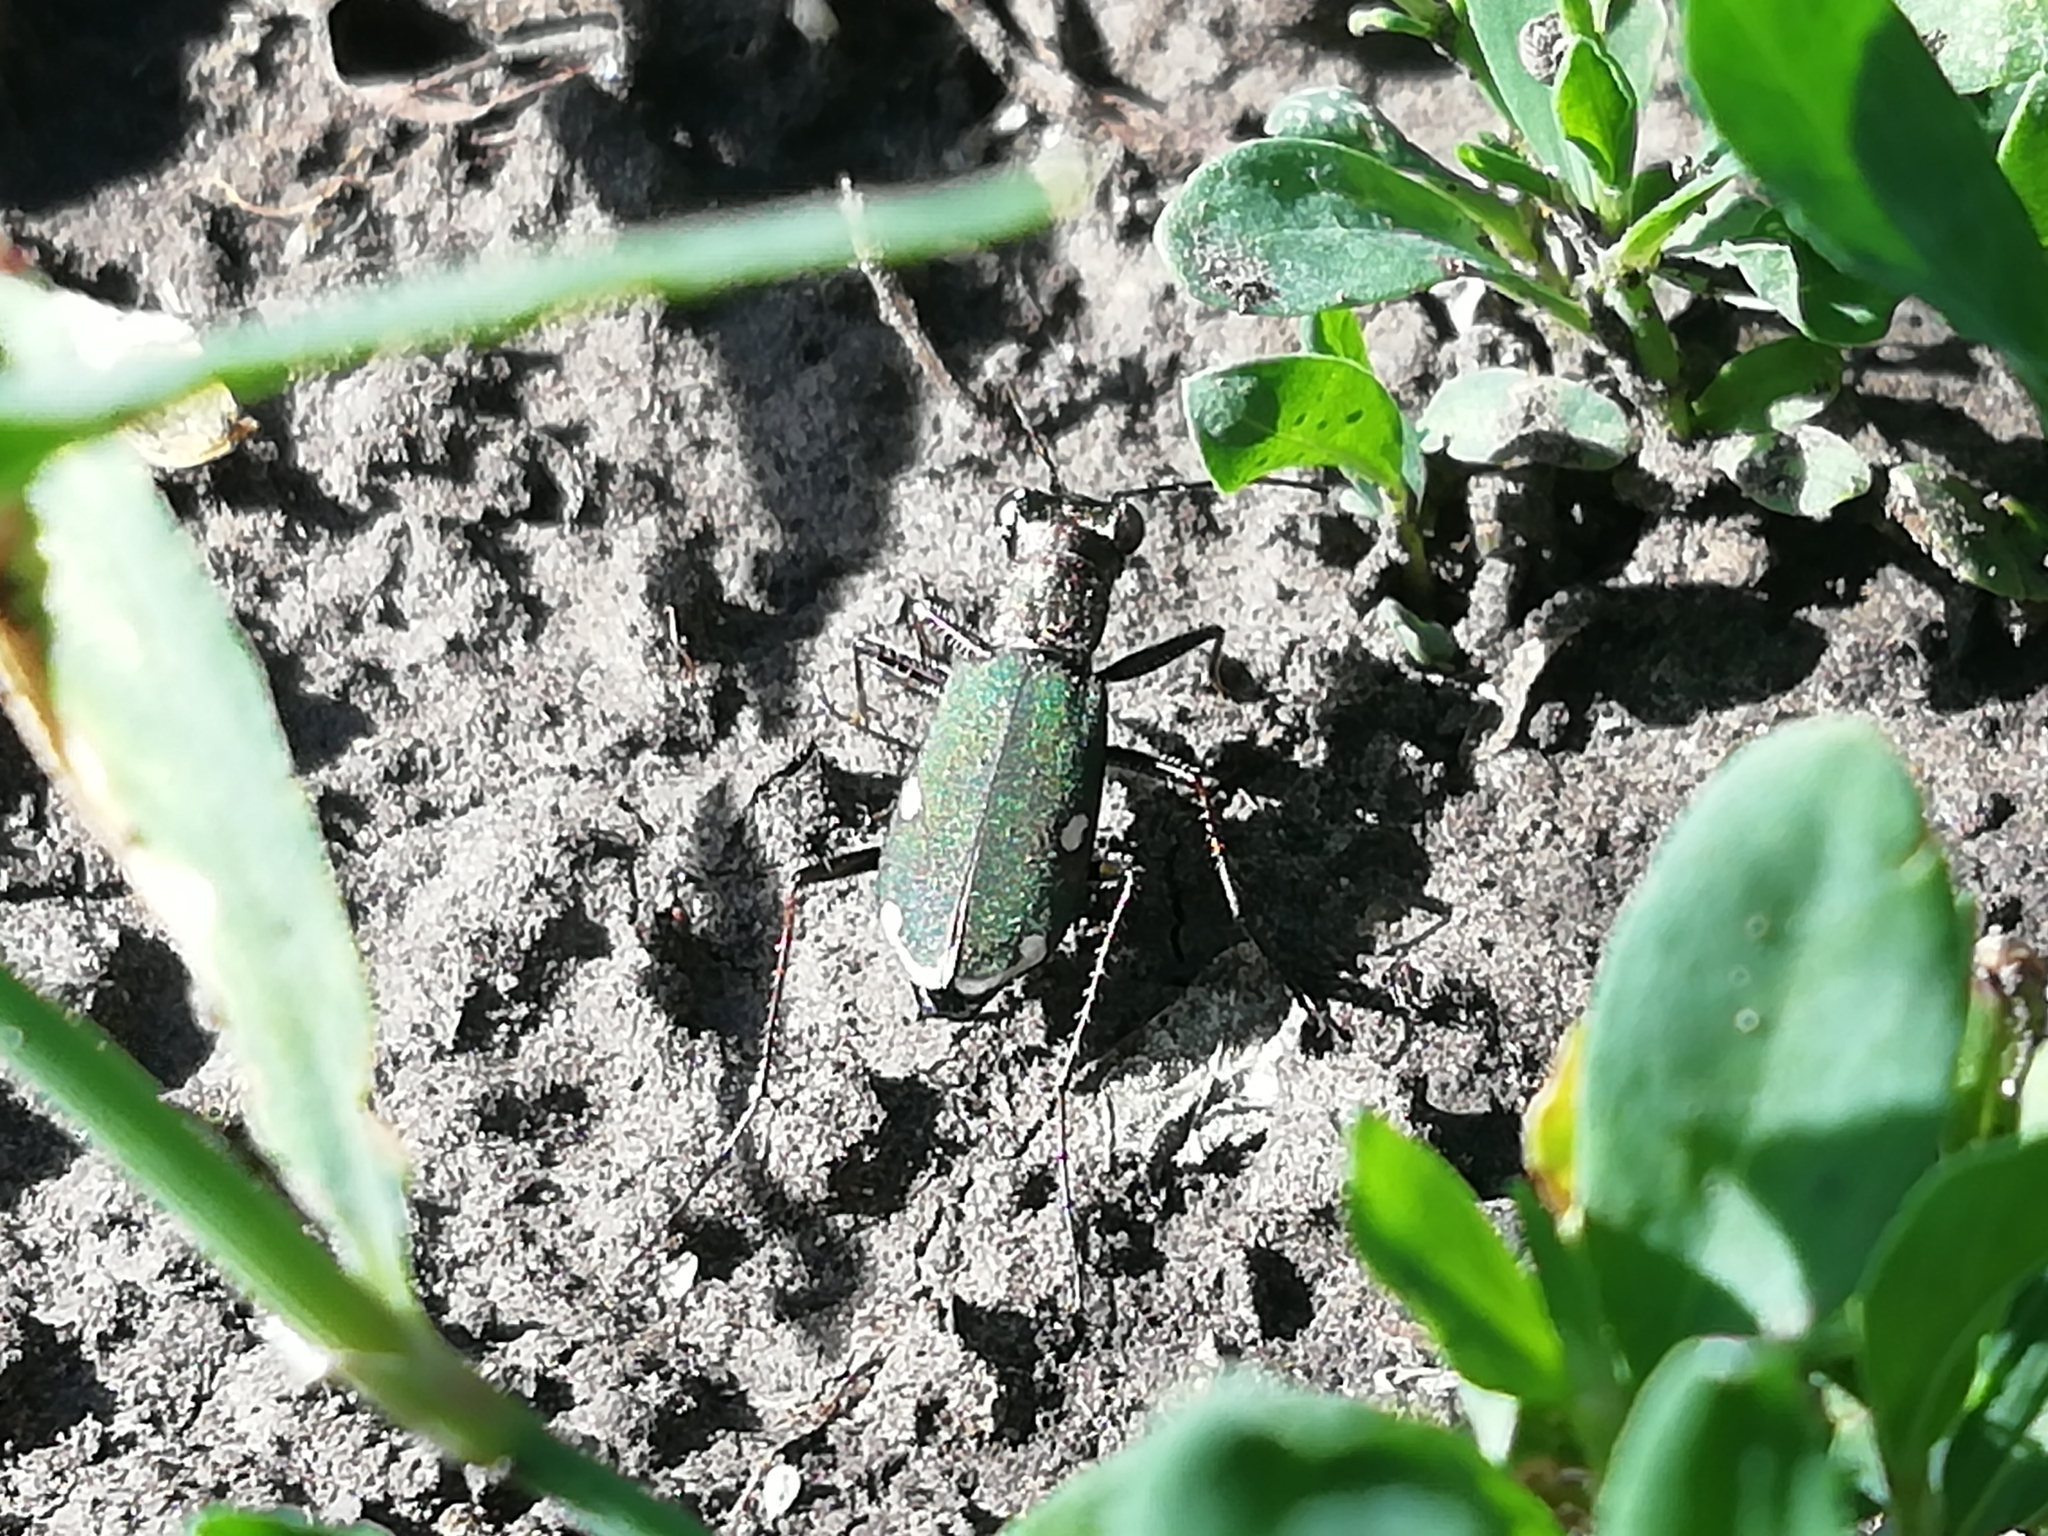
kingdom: Animalia
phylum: Arthropoda
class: Insecta
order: Coleoptera
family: Carabidae
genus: Cylindera
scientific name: Cylindera germanica
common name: Cliff tiger beetle
